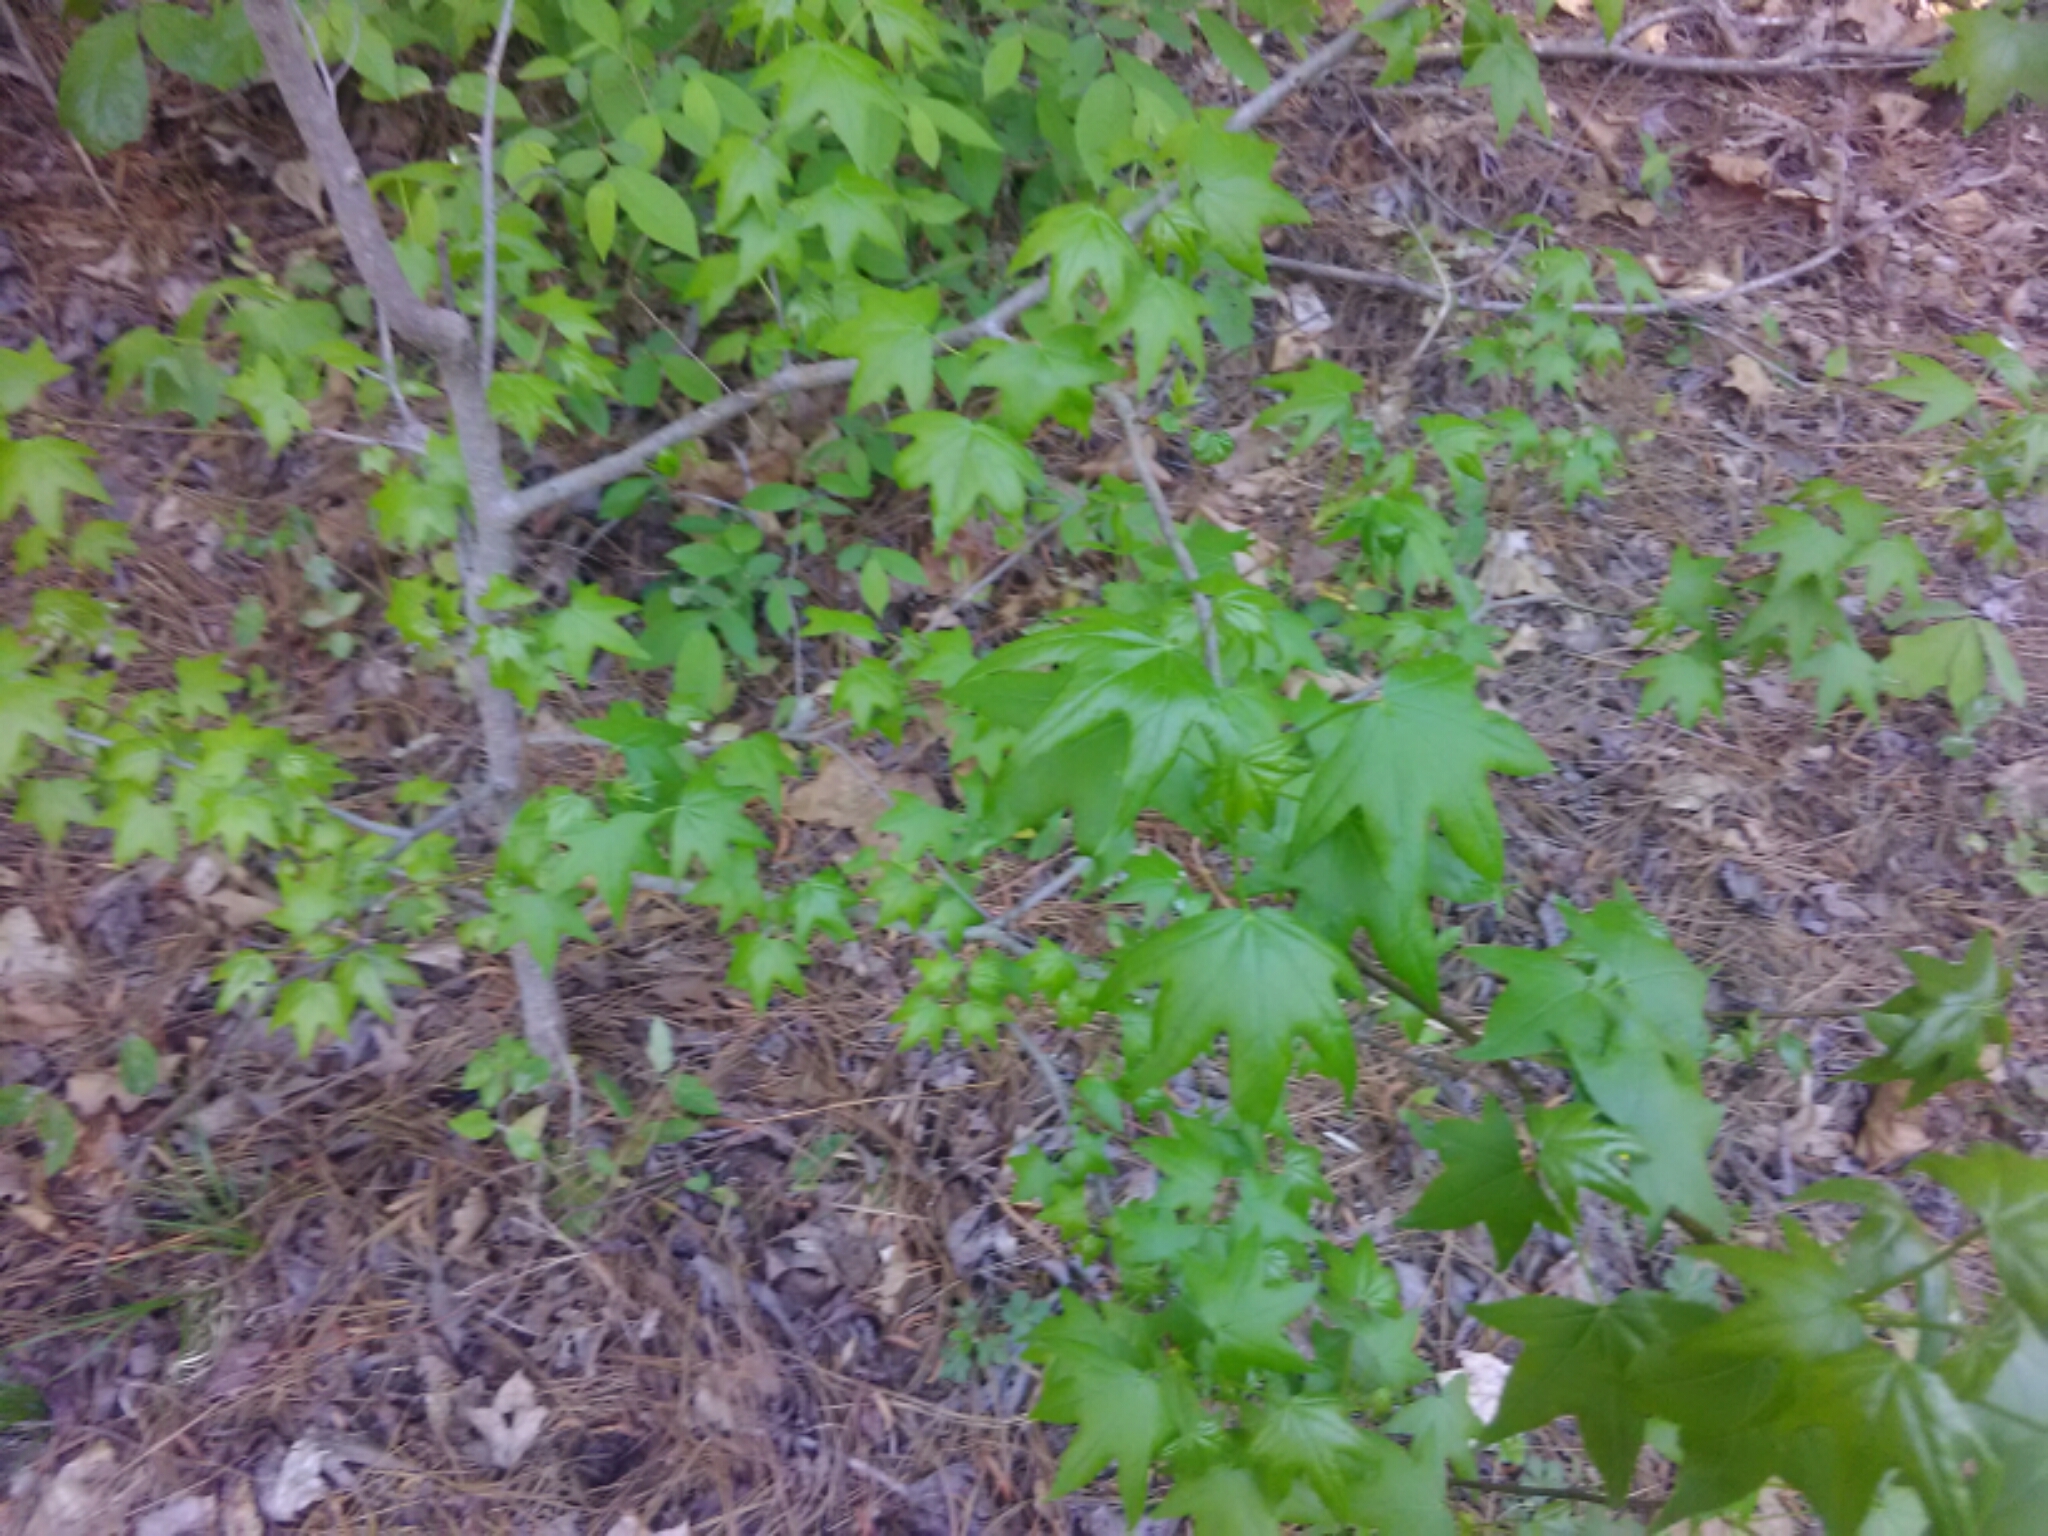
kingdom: Plantae
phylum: Tracheophyta
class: Magnoliopsida
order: Saxifragales
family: Altingiaceae
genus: Liquidambar
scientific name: Liquidambar styraciflua
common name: Sweet gum
